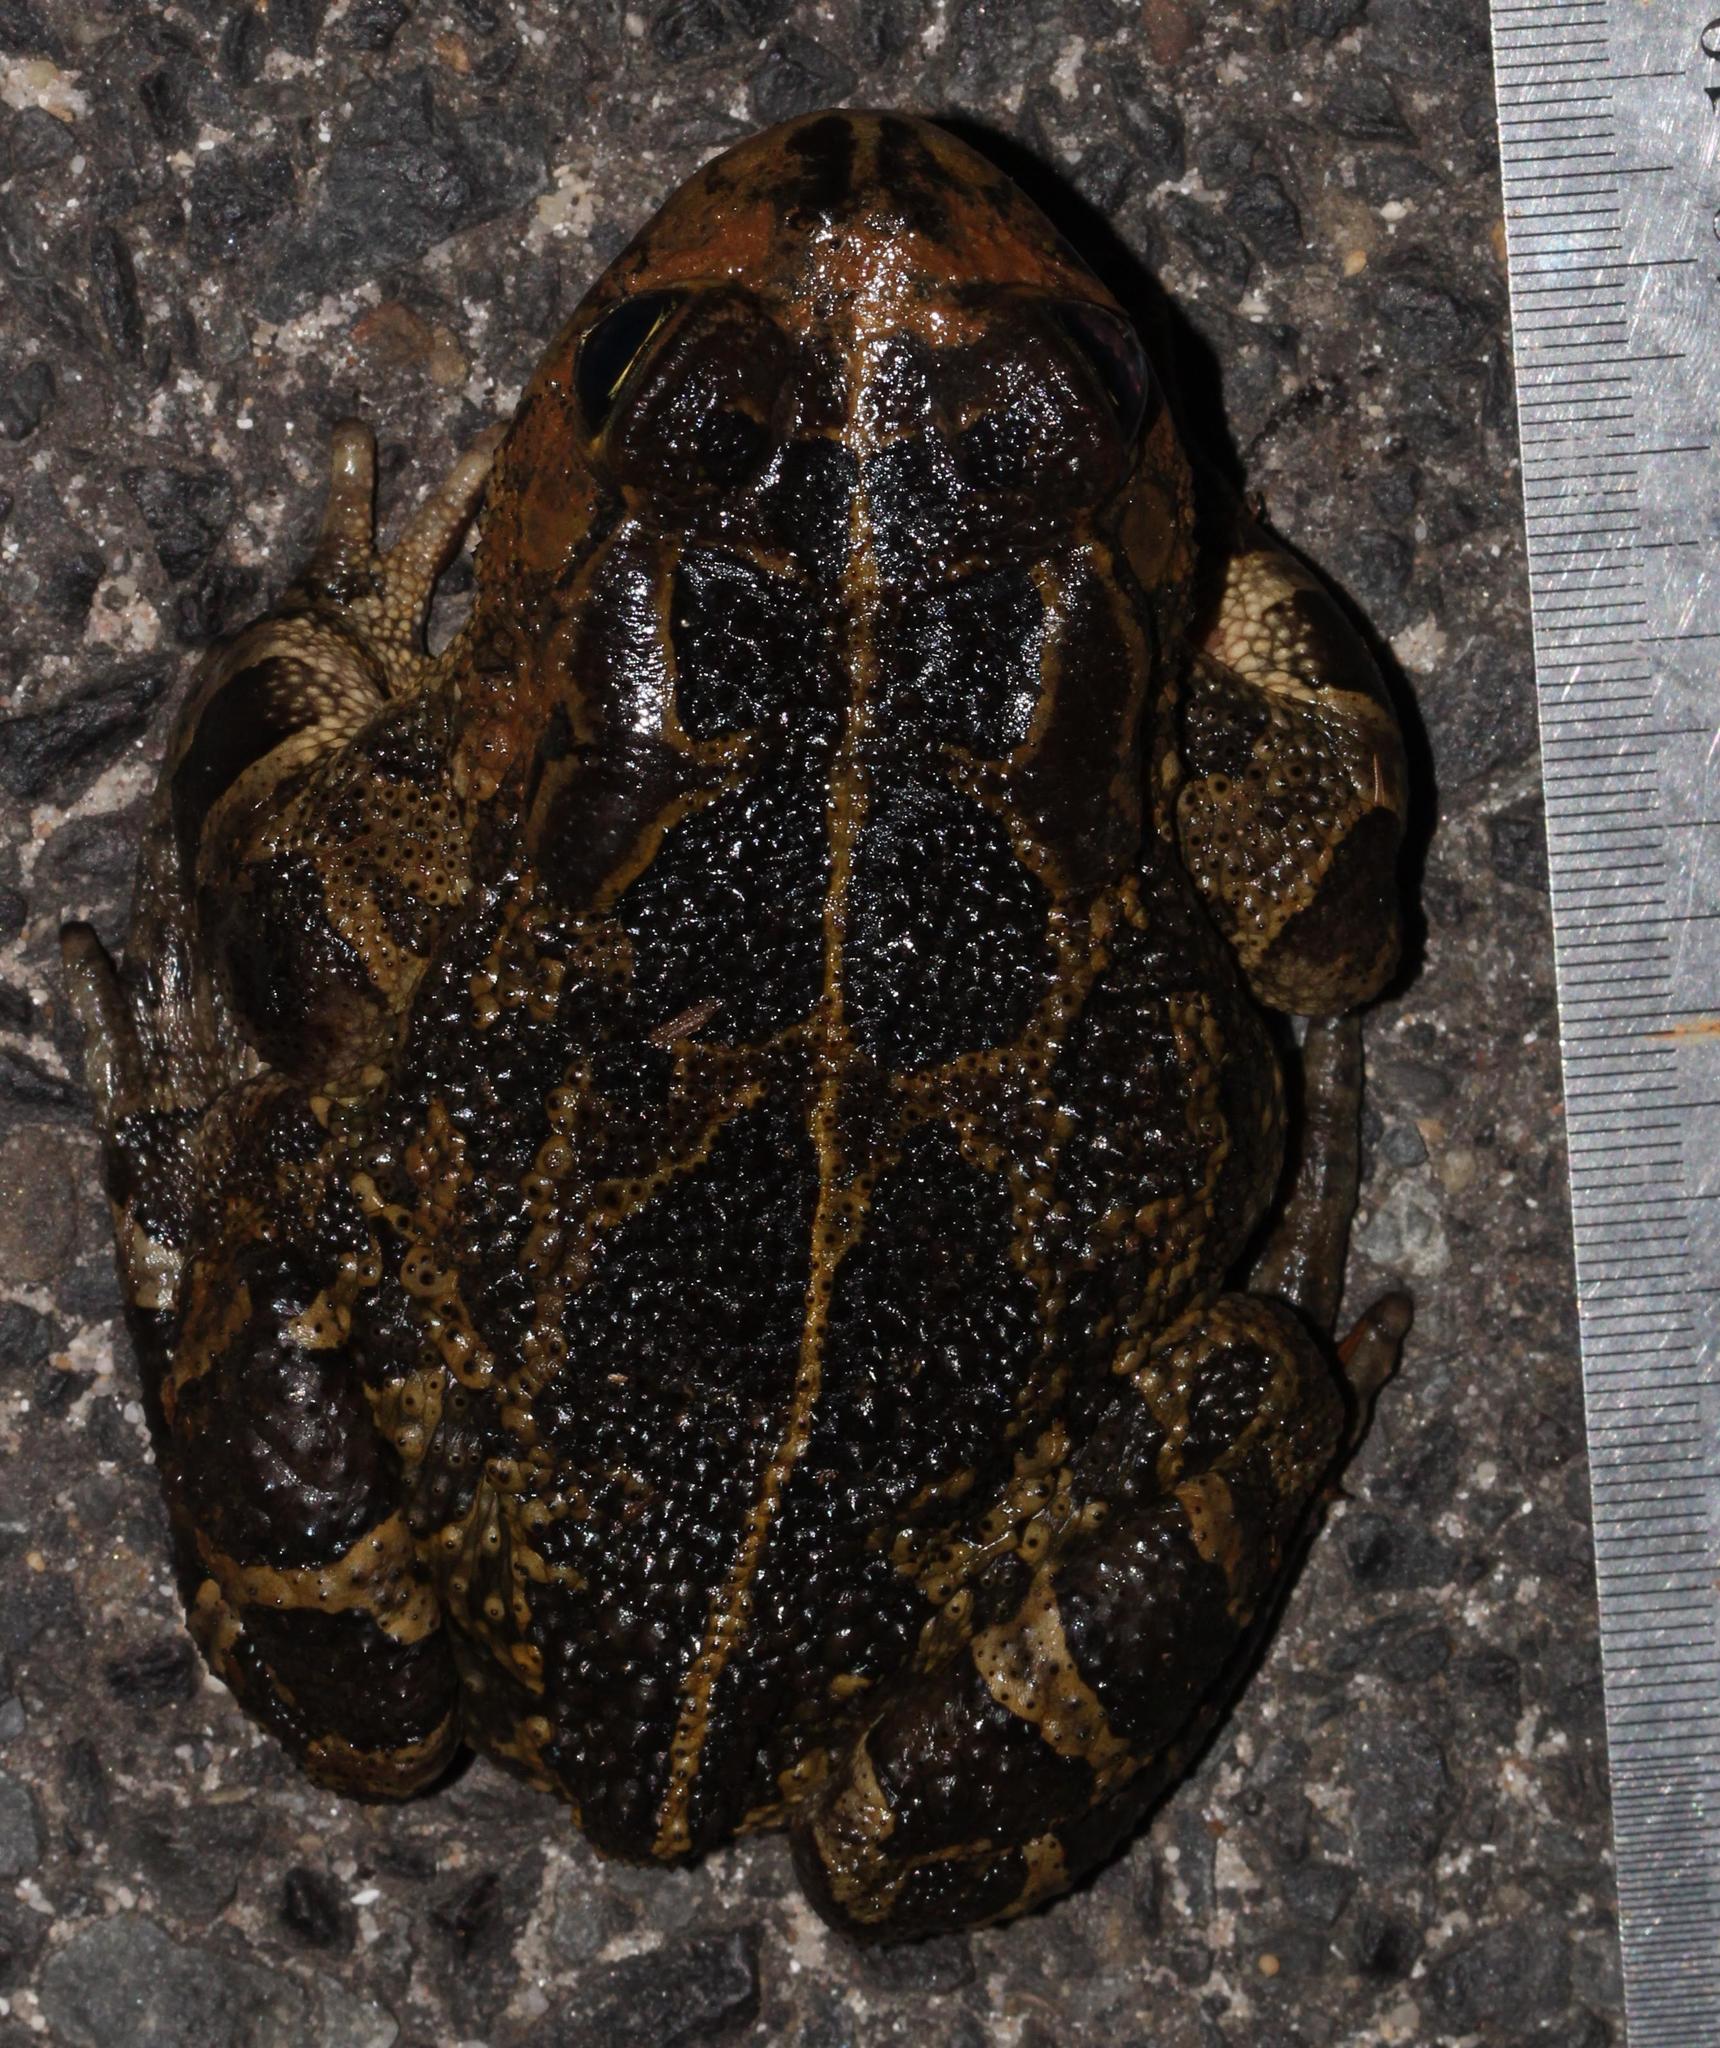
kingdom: Animalia
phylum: Chordata
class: Amphibia
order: Anura
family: Bufonidae
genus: Sclerophrys
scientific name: Sclerophrys pantherina
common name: Panther toad
